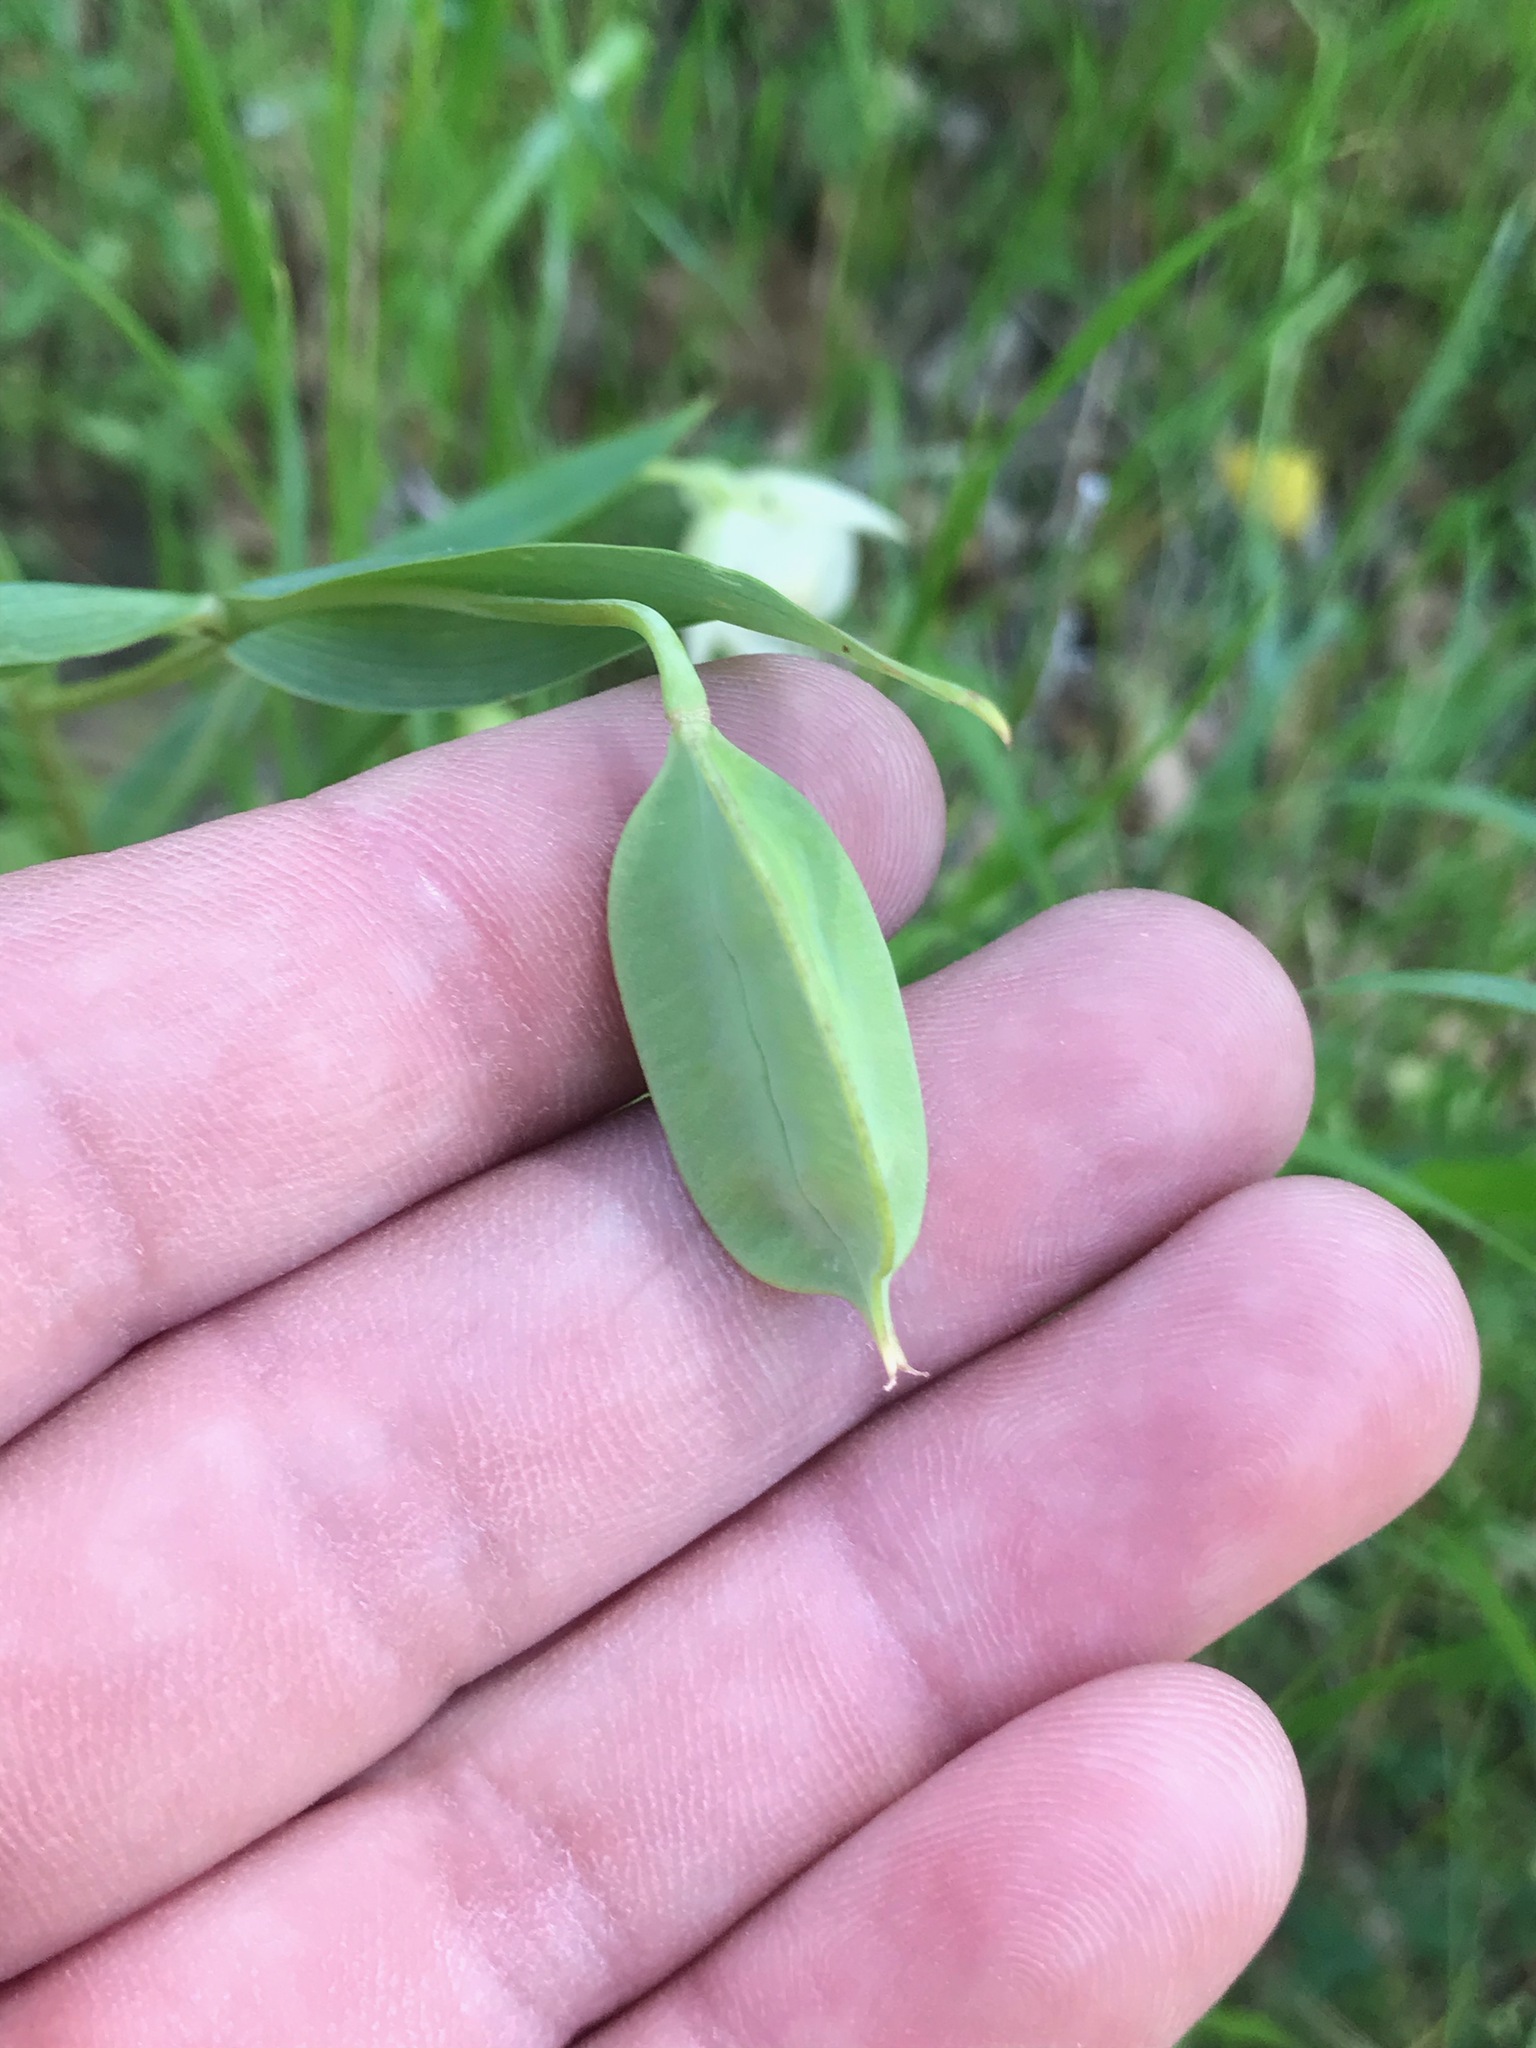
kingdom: Plantae
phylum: Tracheophyta
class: Liliopsida
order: Liliales
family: Liliaceae
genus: Calochortus
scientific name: Calochortus albus
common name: Fairy-lantern
